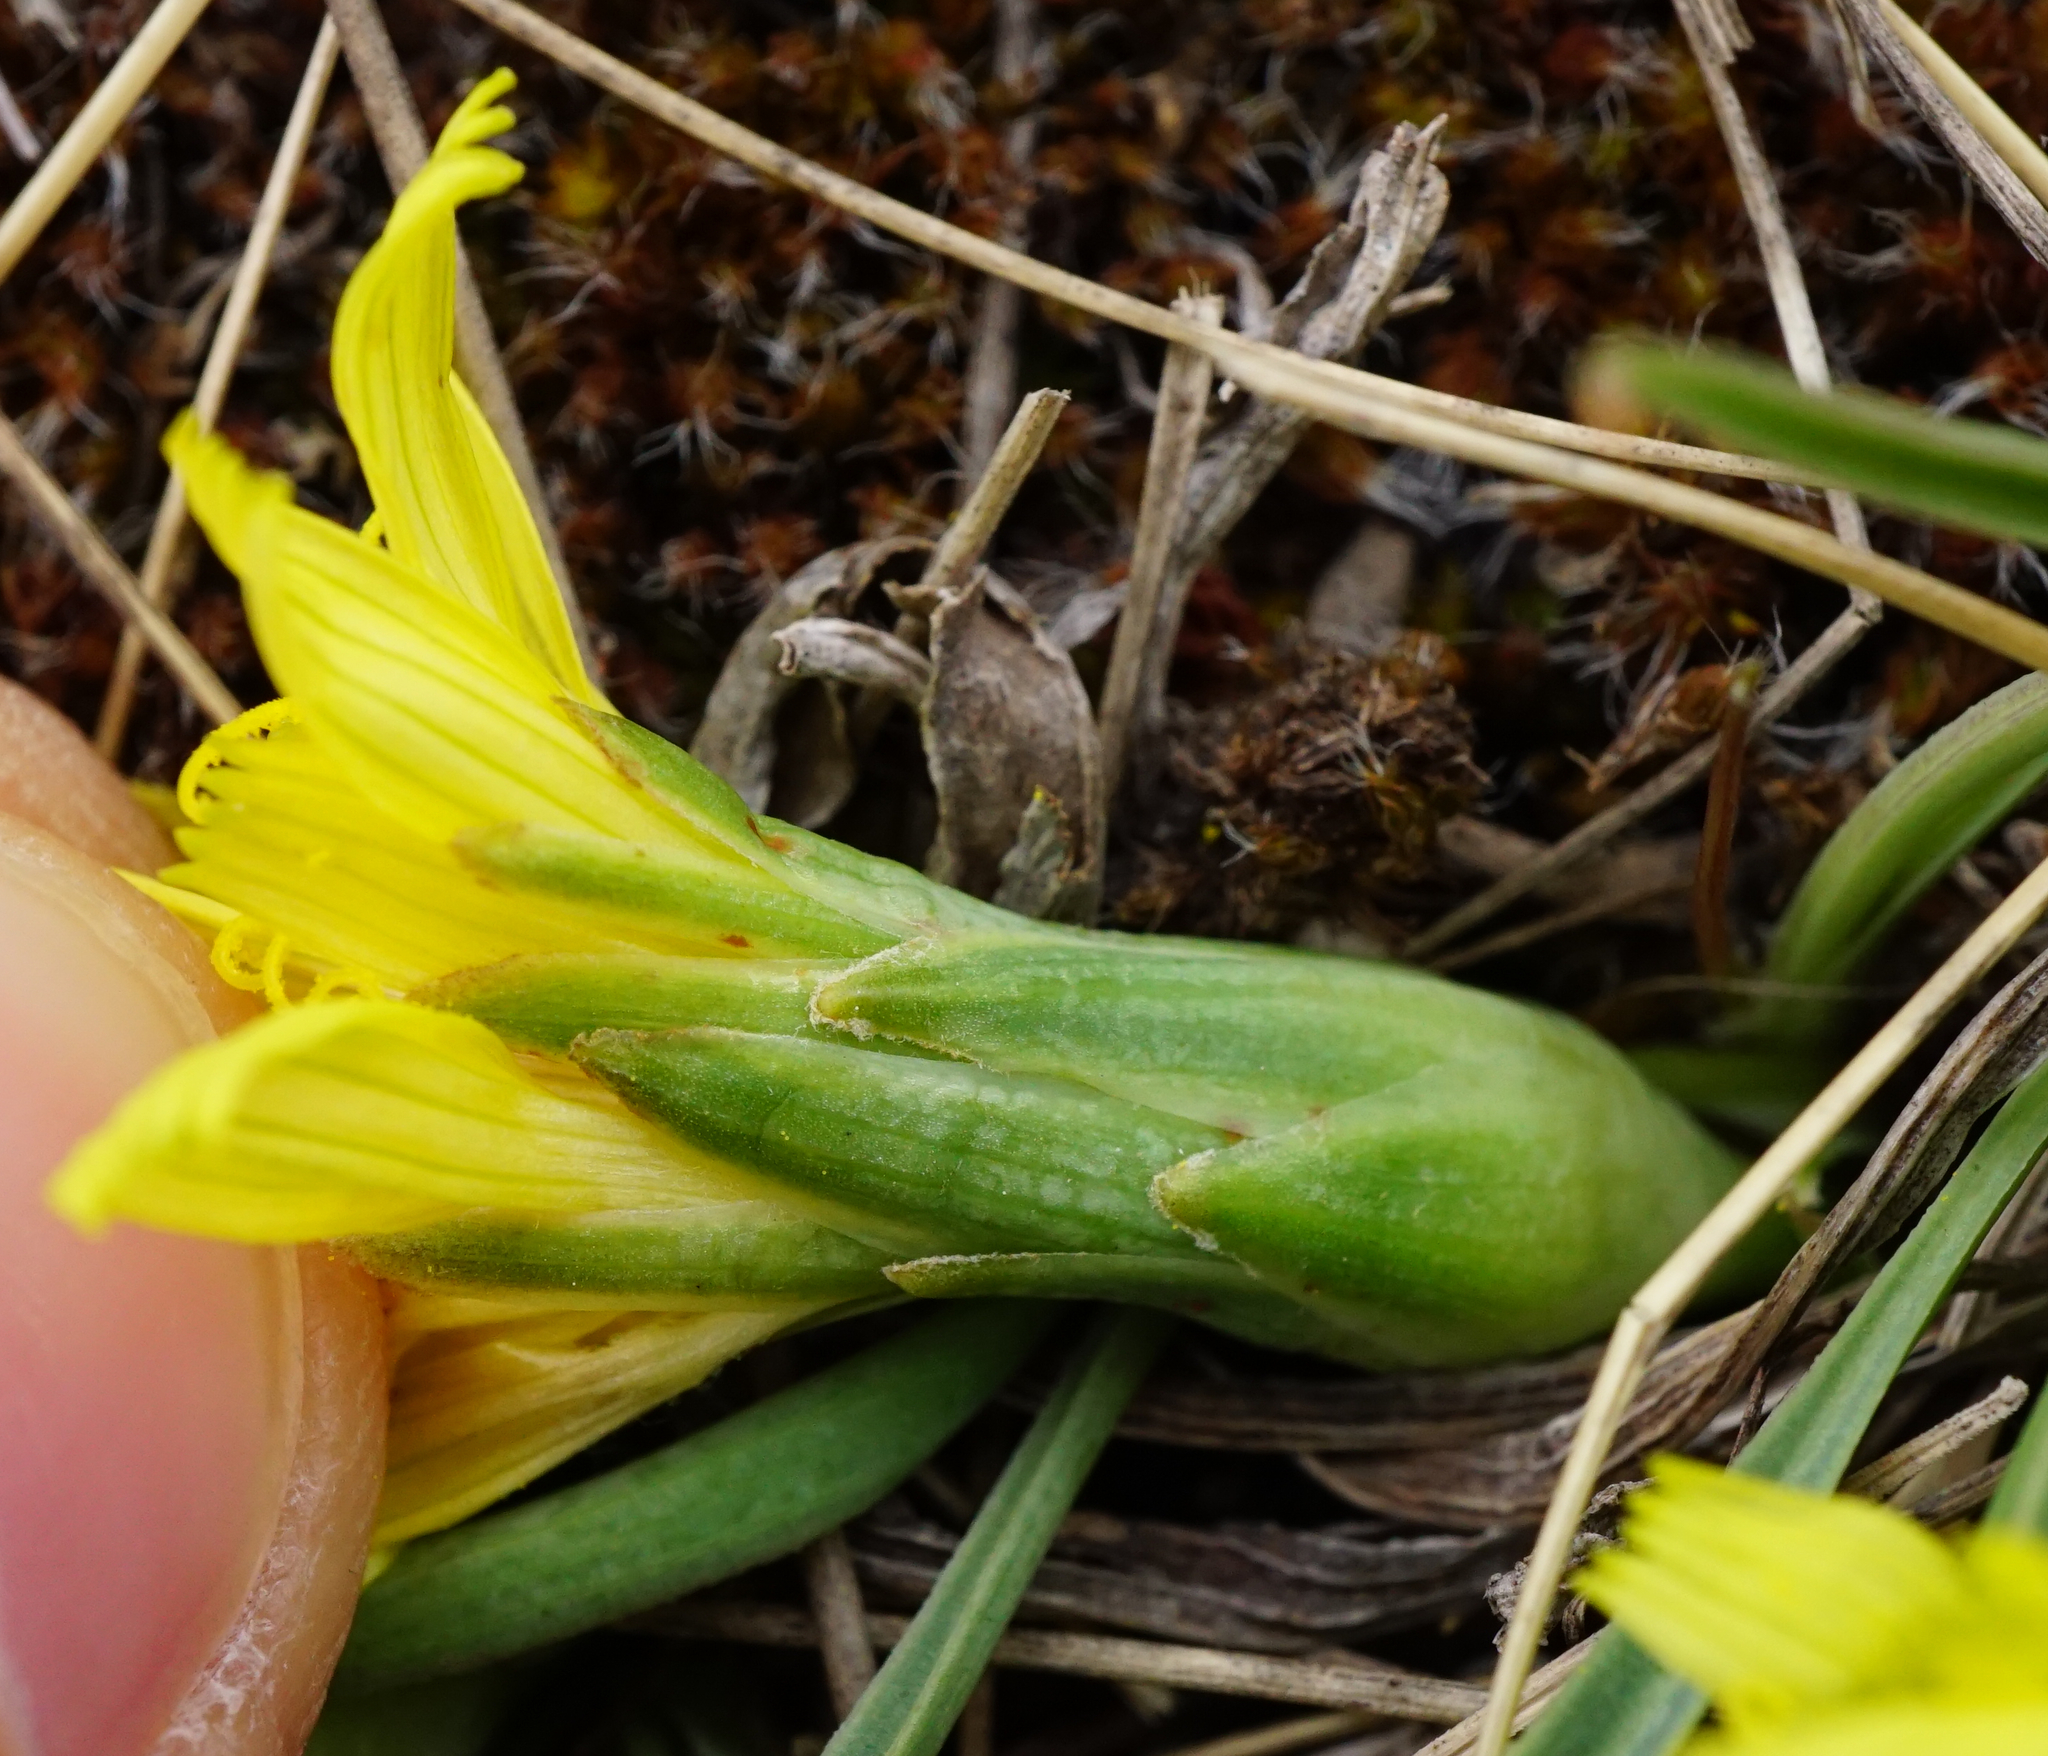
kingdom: Plantae
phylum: Tracheophyta
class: Magnoliopsida
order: Asterales
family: Asteraceae
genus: Takhtajaniantha
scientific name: Takhtajaniantha austriaca
